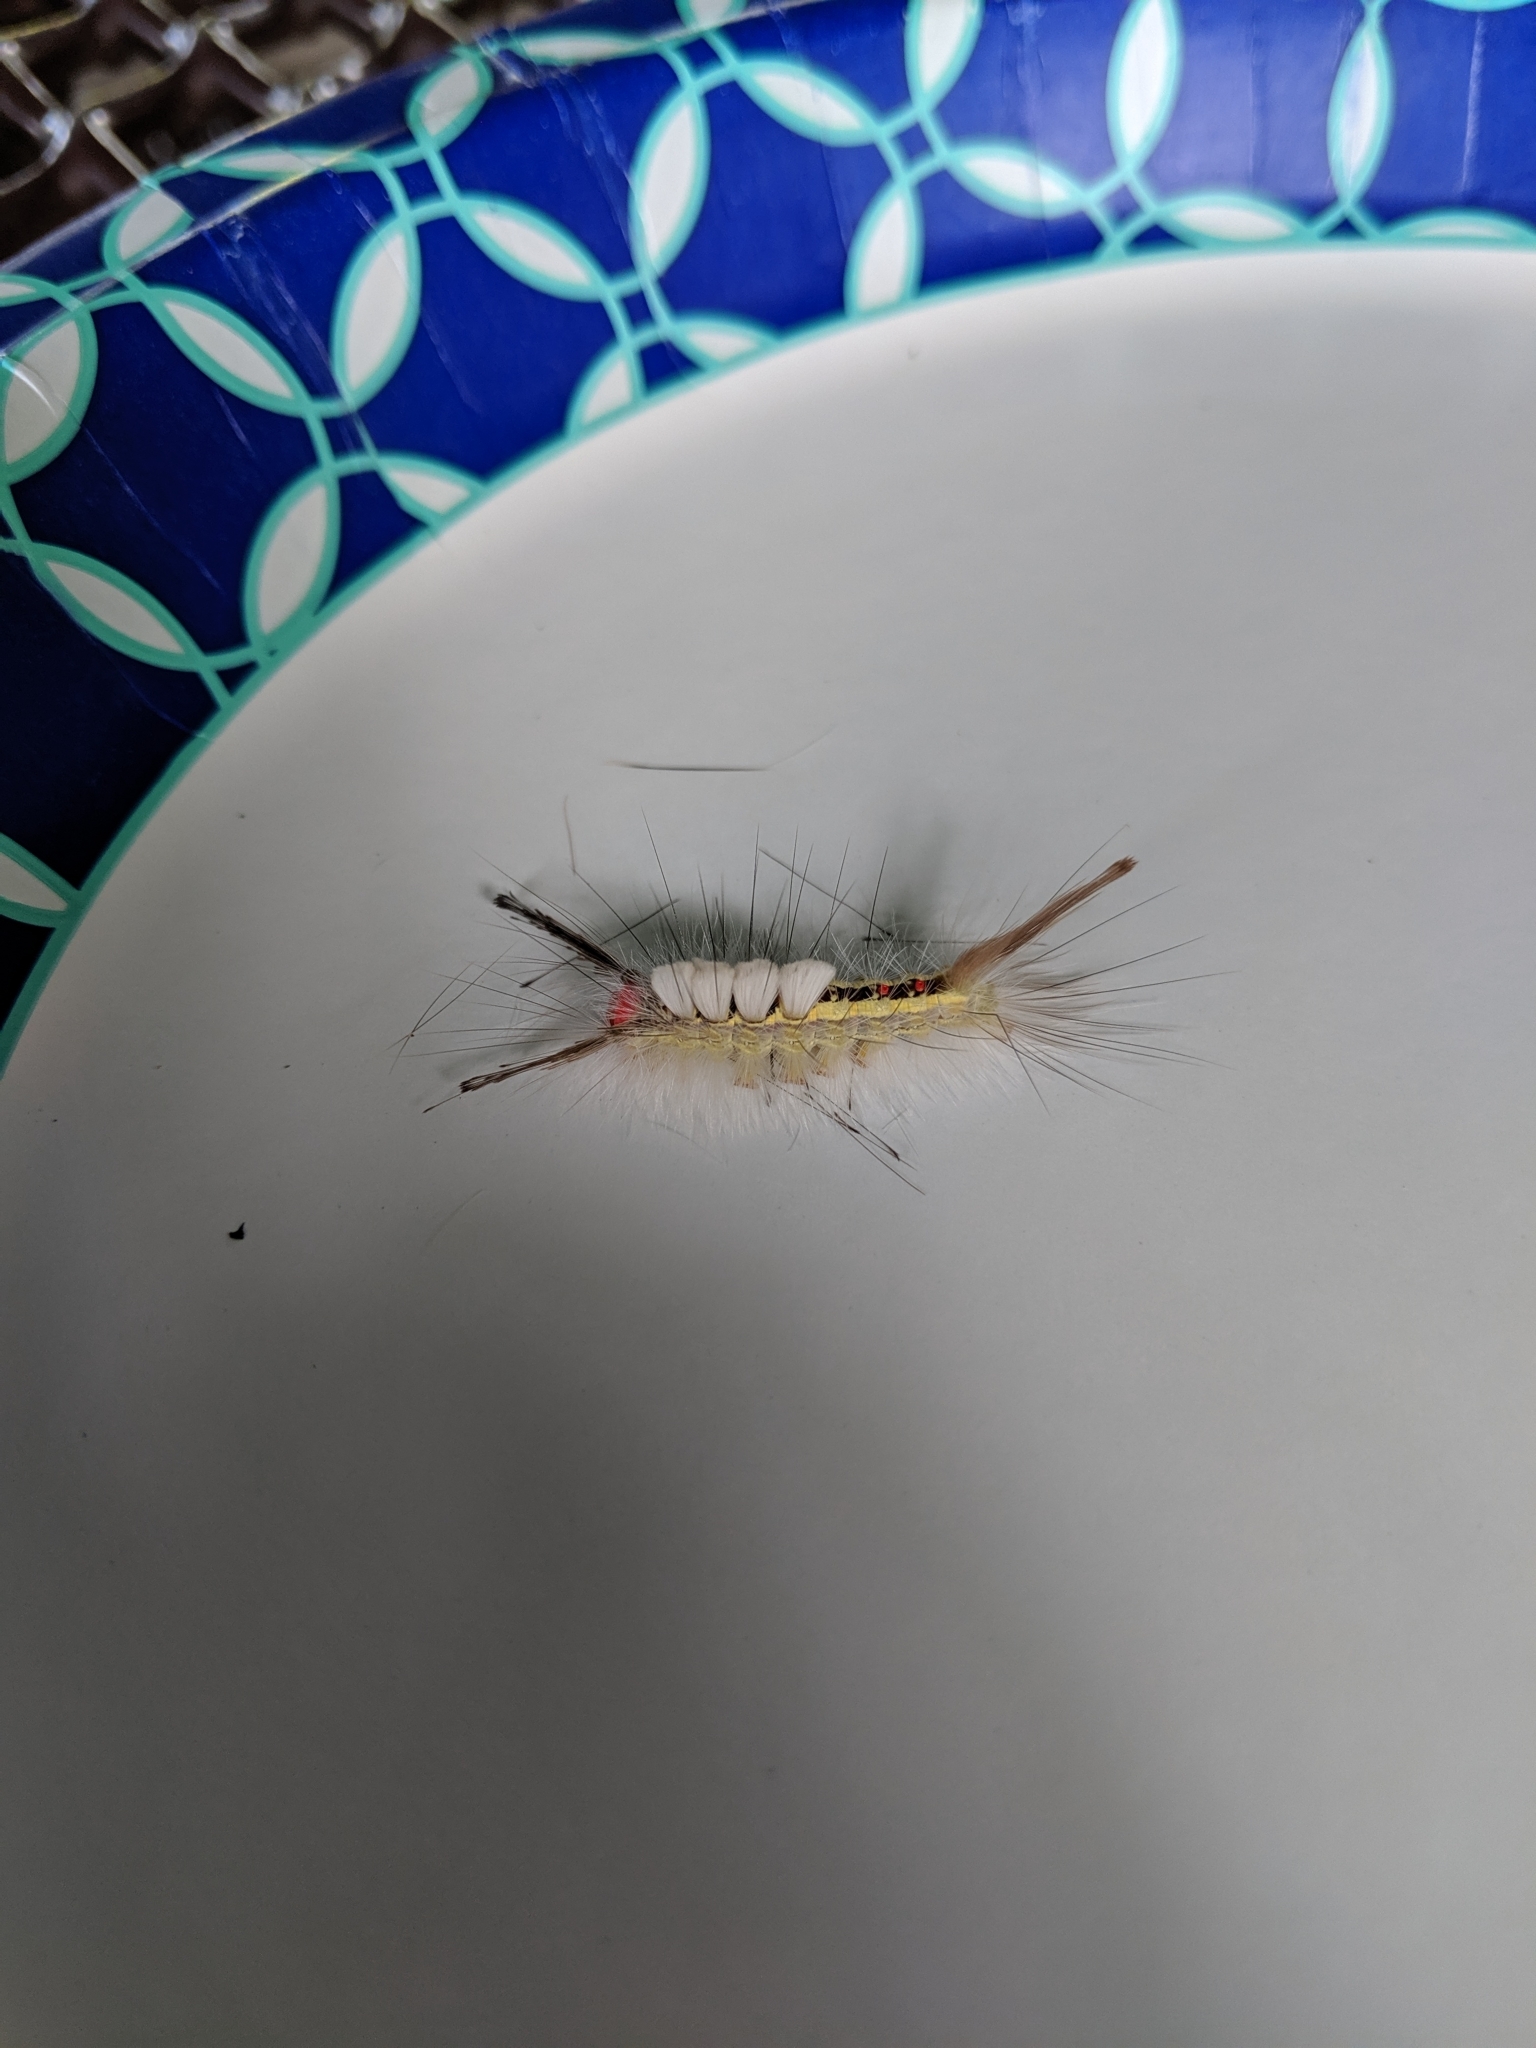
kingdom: Animalia
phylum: Arthropoda
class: Insecta
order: Lepidoptera
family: Erebidae
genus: Orgyia
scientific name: Orgyia leucostigma
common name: White-marked tussock moth
